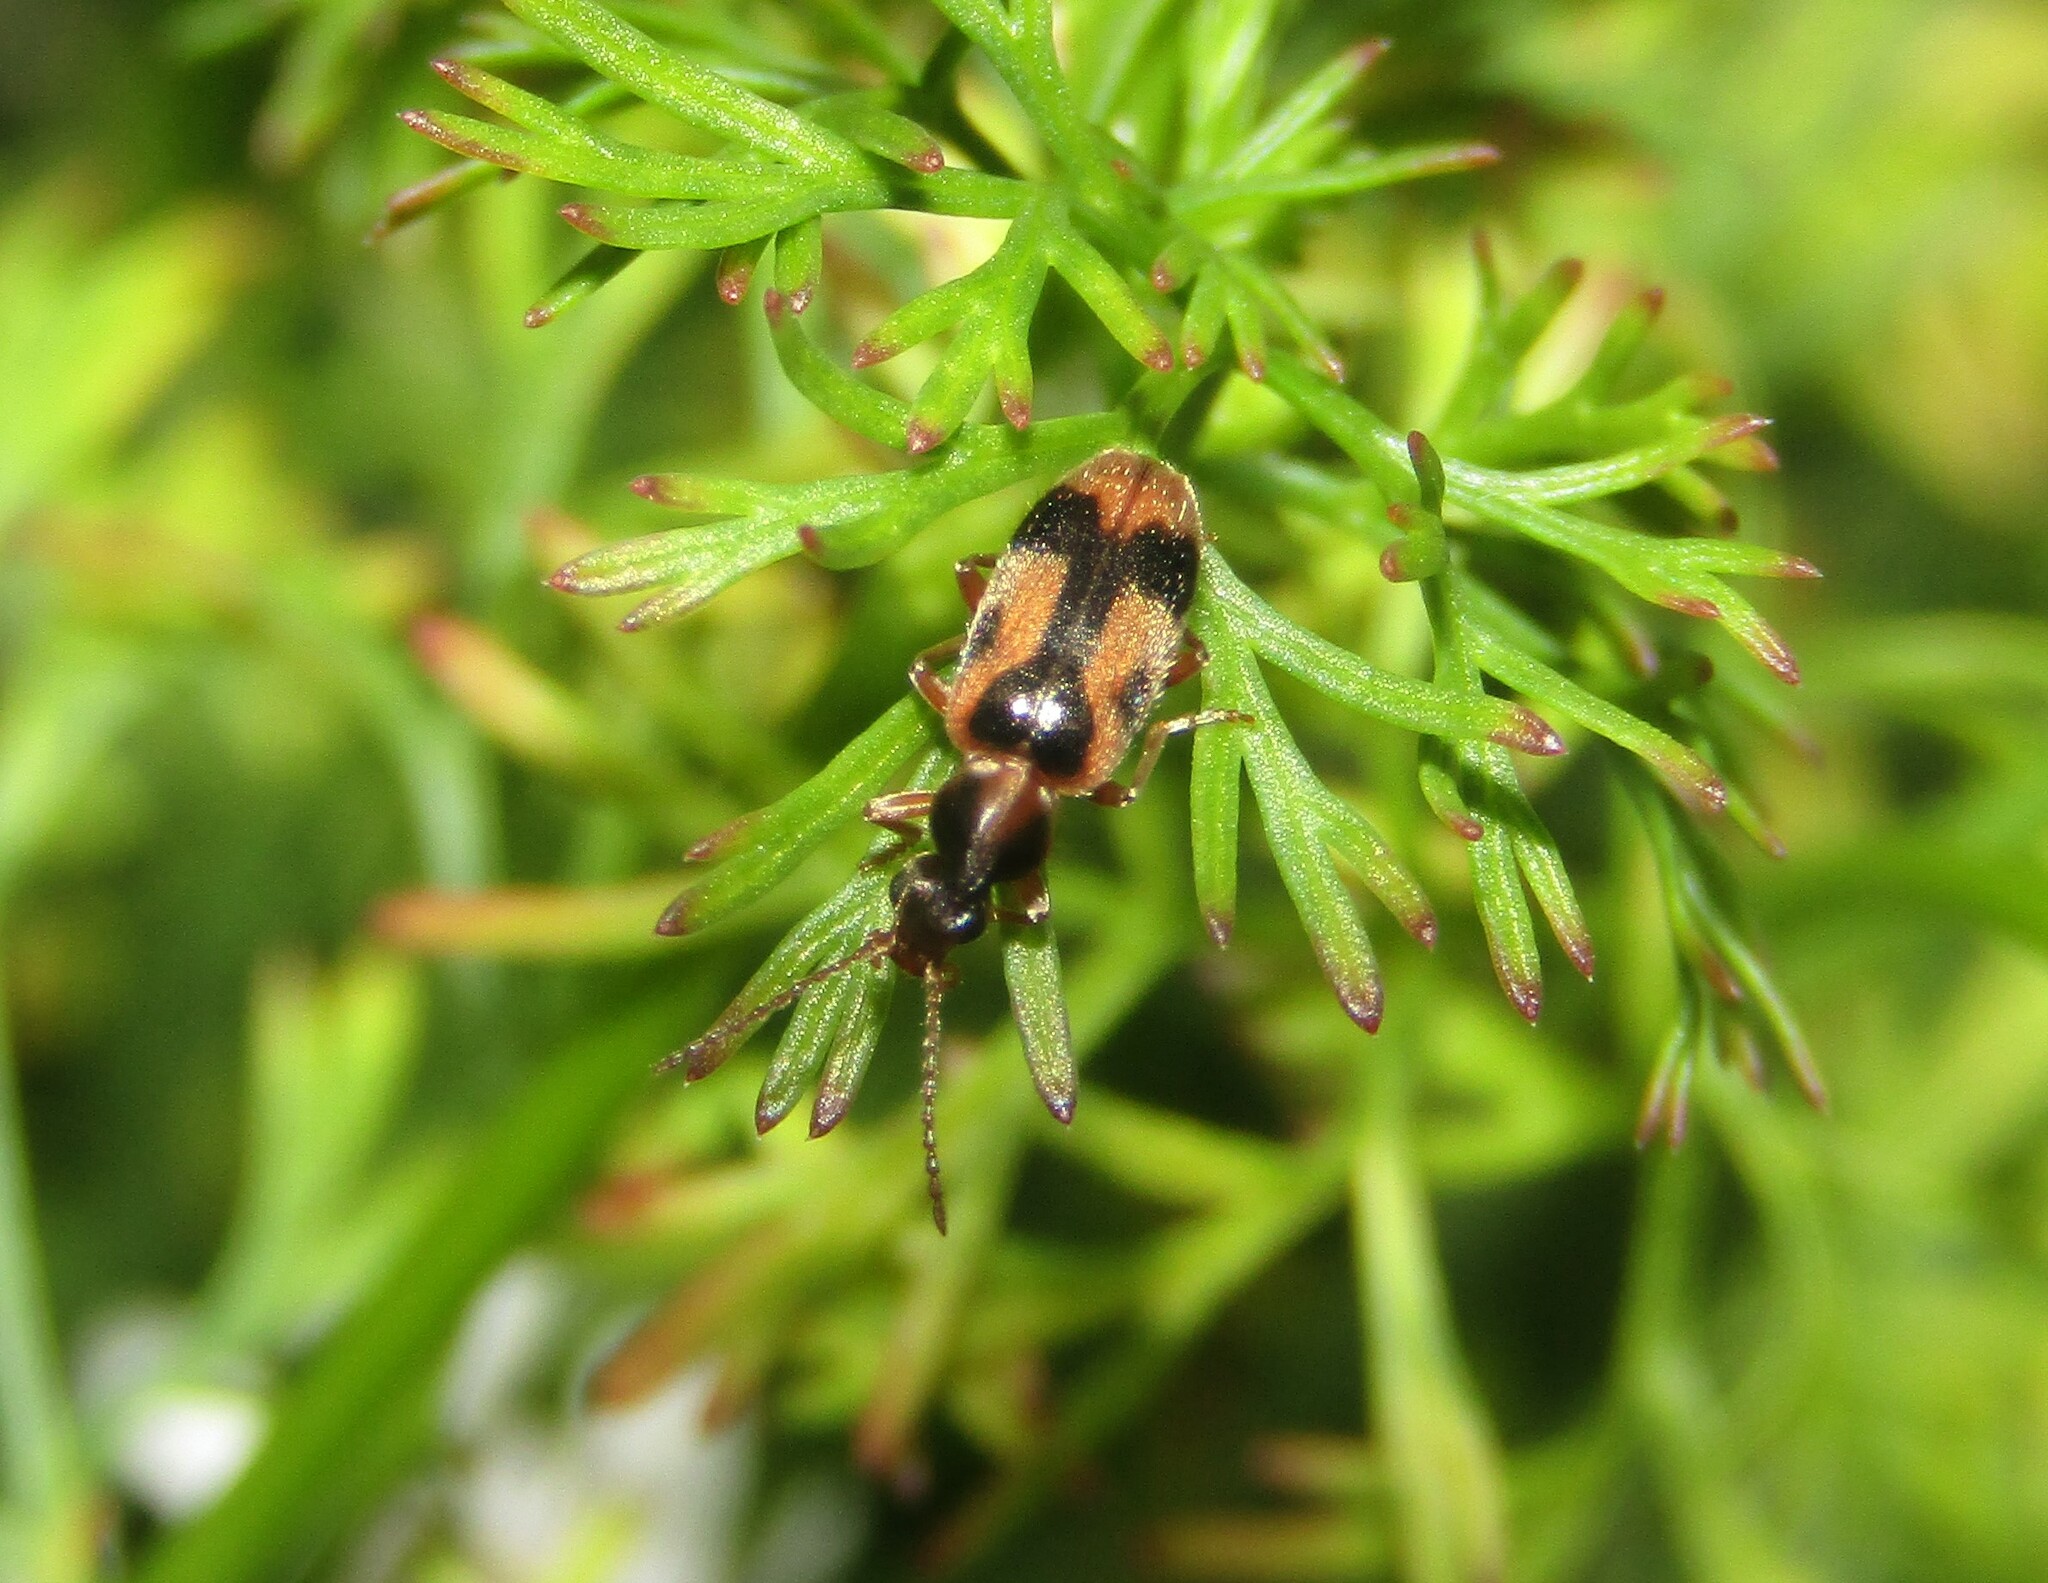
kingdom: Animalia
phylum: Arthropoda
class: Insecta
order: Coleoptera
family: Anthicidae
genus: Notoxus
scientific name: Notoxus monoceros
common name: Monoceros beetle
